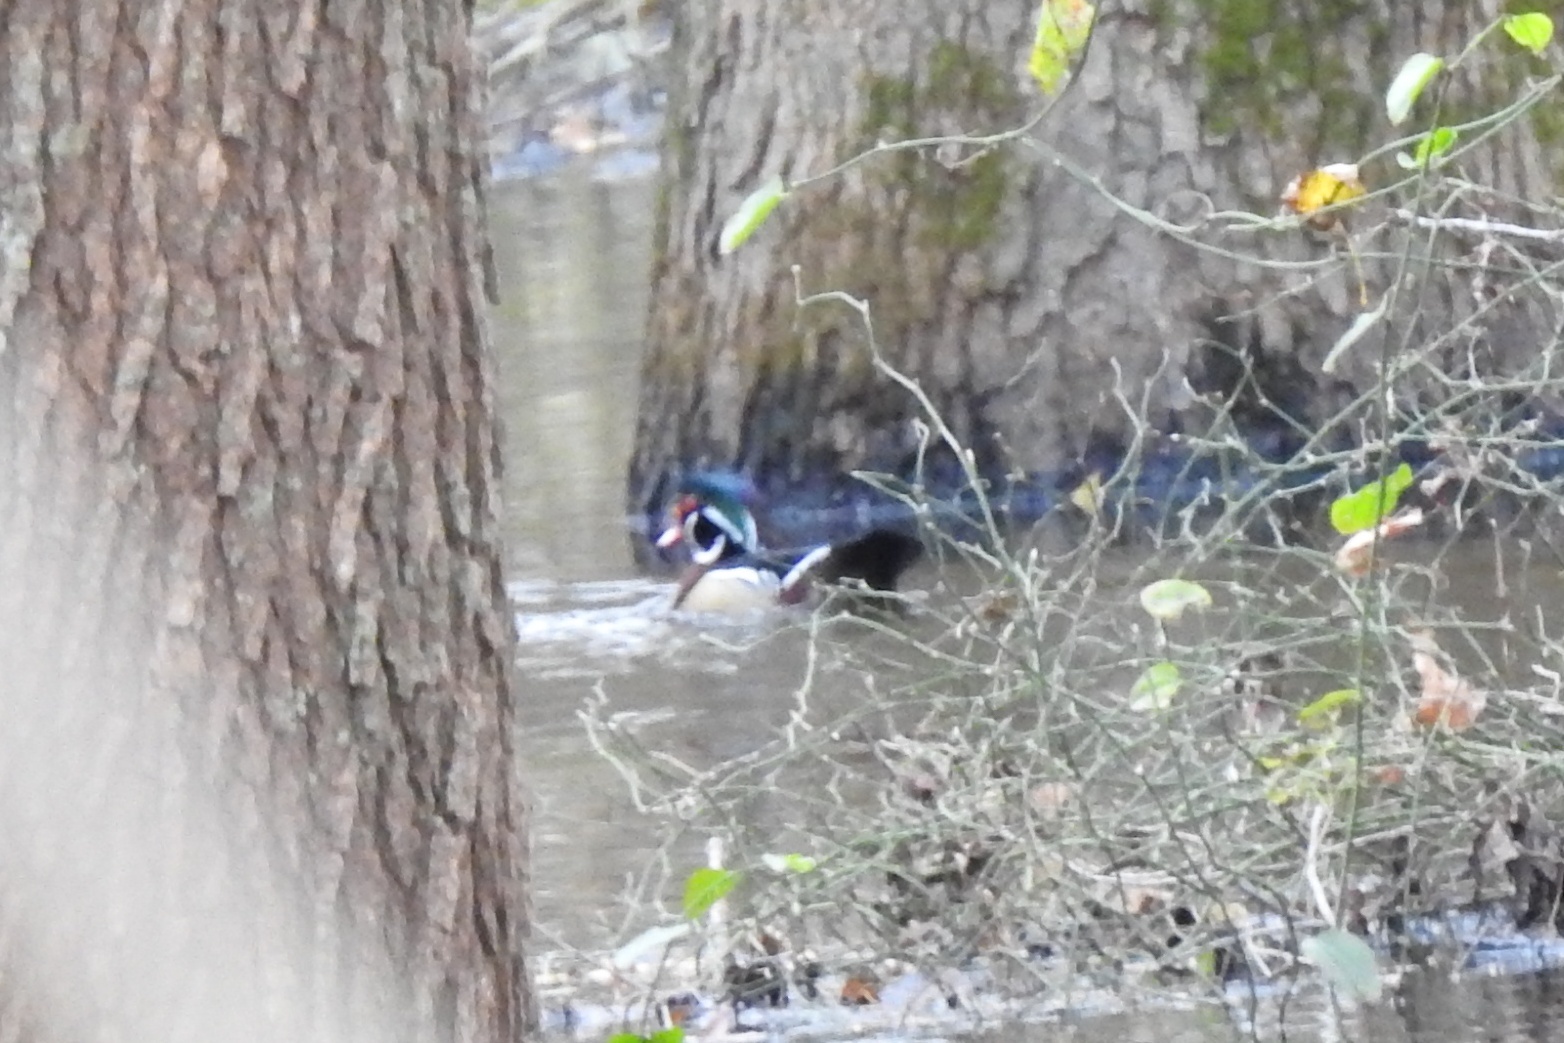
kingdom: Animalia
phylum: Chordata
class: Aves
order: Anseriformes
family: Anatidae
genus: Aix
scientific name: Aix sponsa
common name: Wood duck
